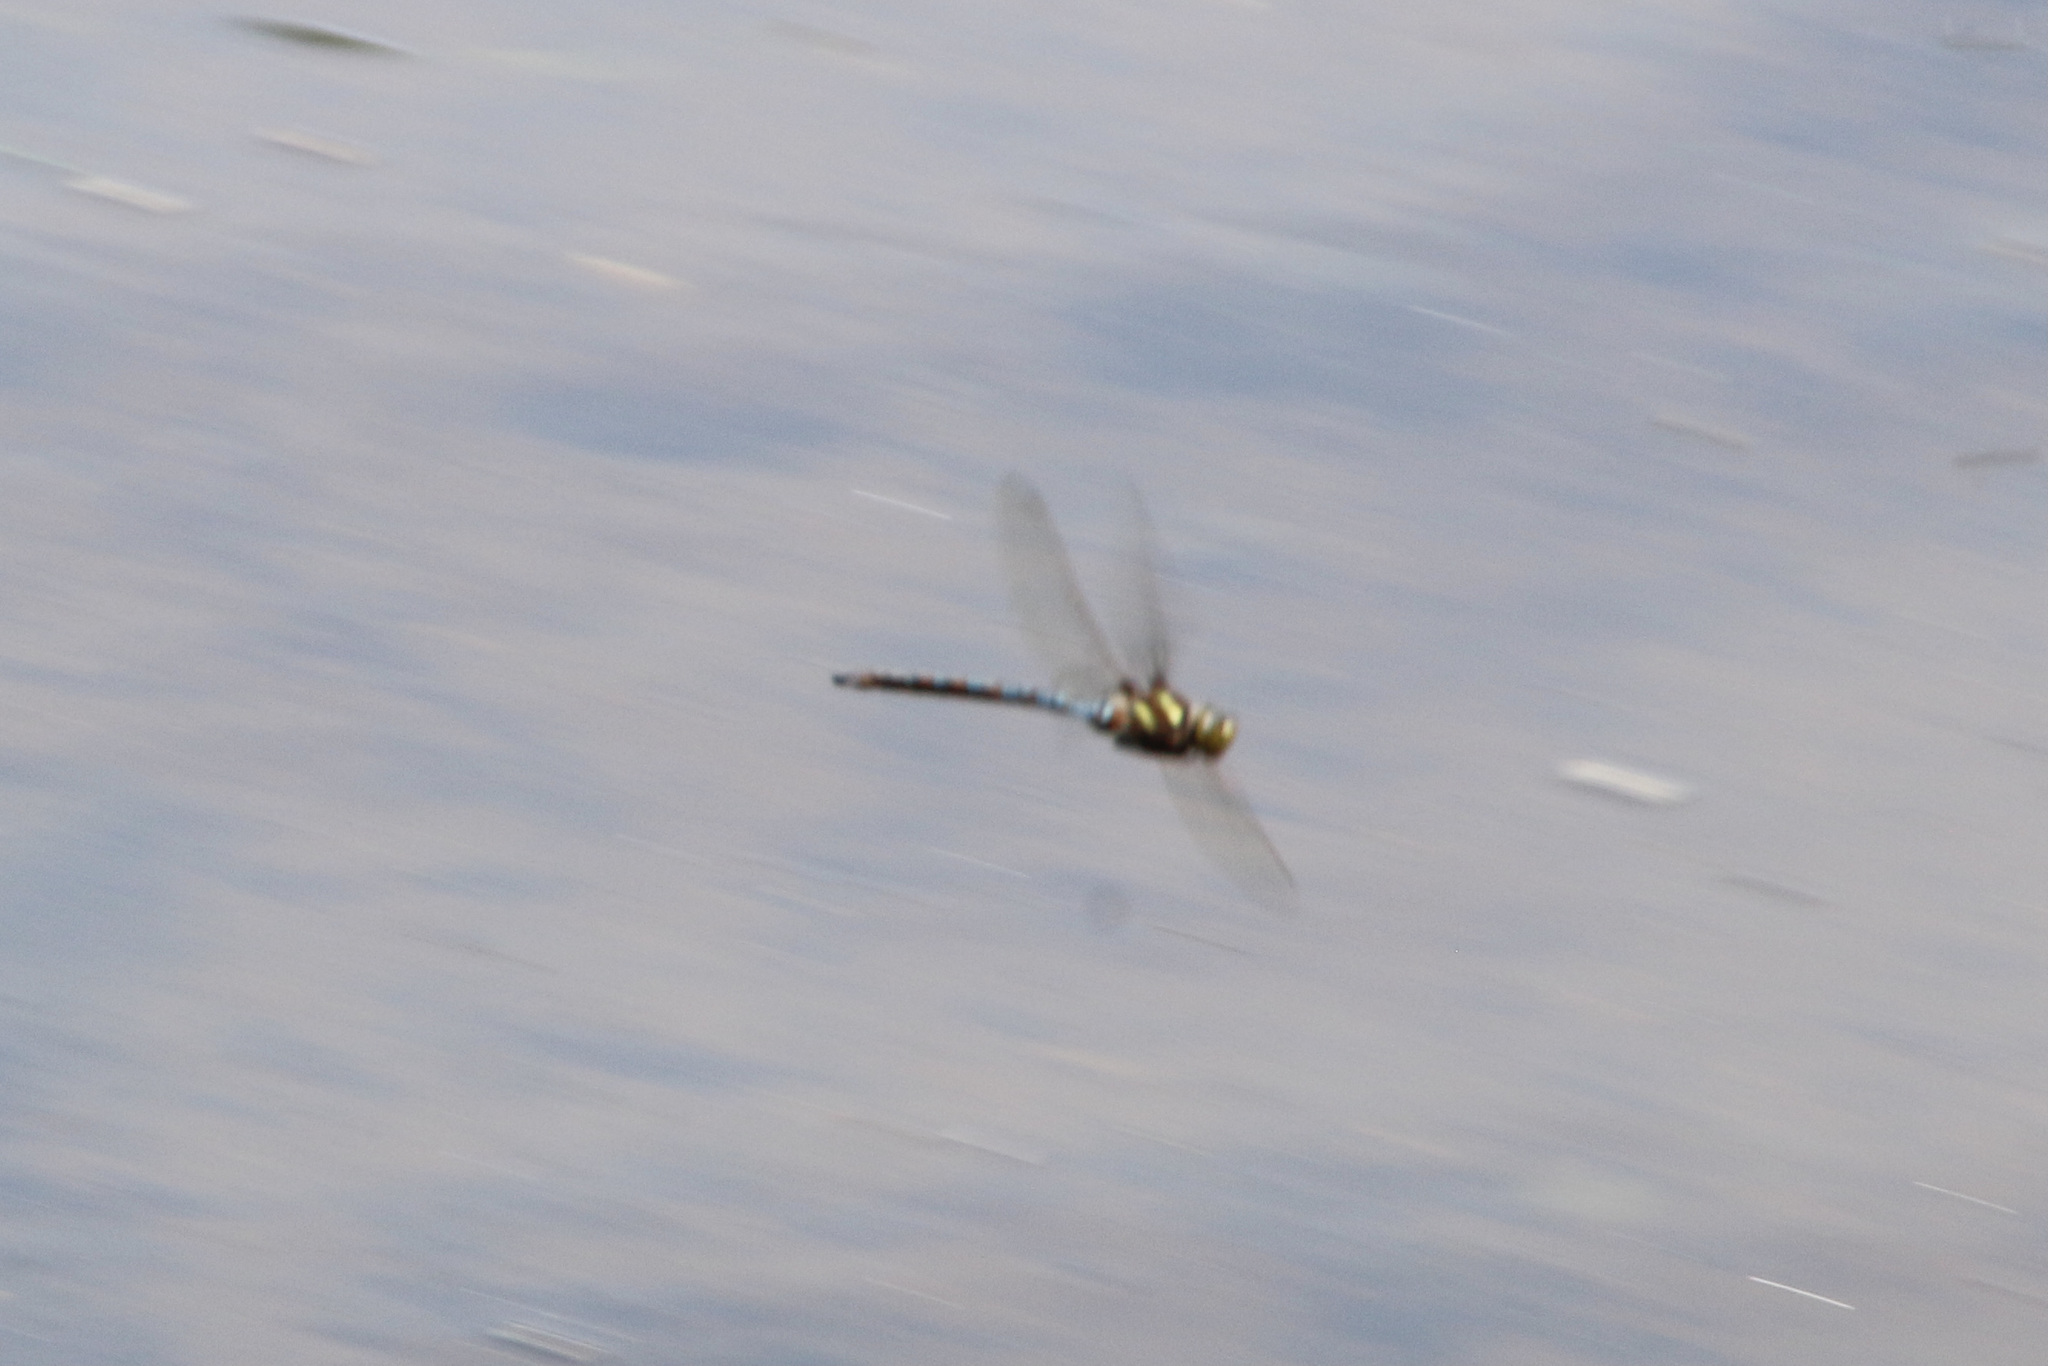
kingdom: Animalia
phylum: Arthropoda
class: Insecta
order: Odonata
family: Aeshnidae
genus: Basiaeschna
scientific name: Basiaeschna janata
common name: Springtime darner
